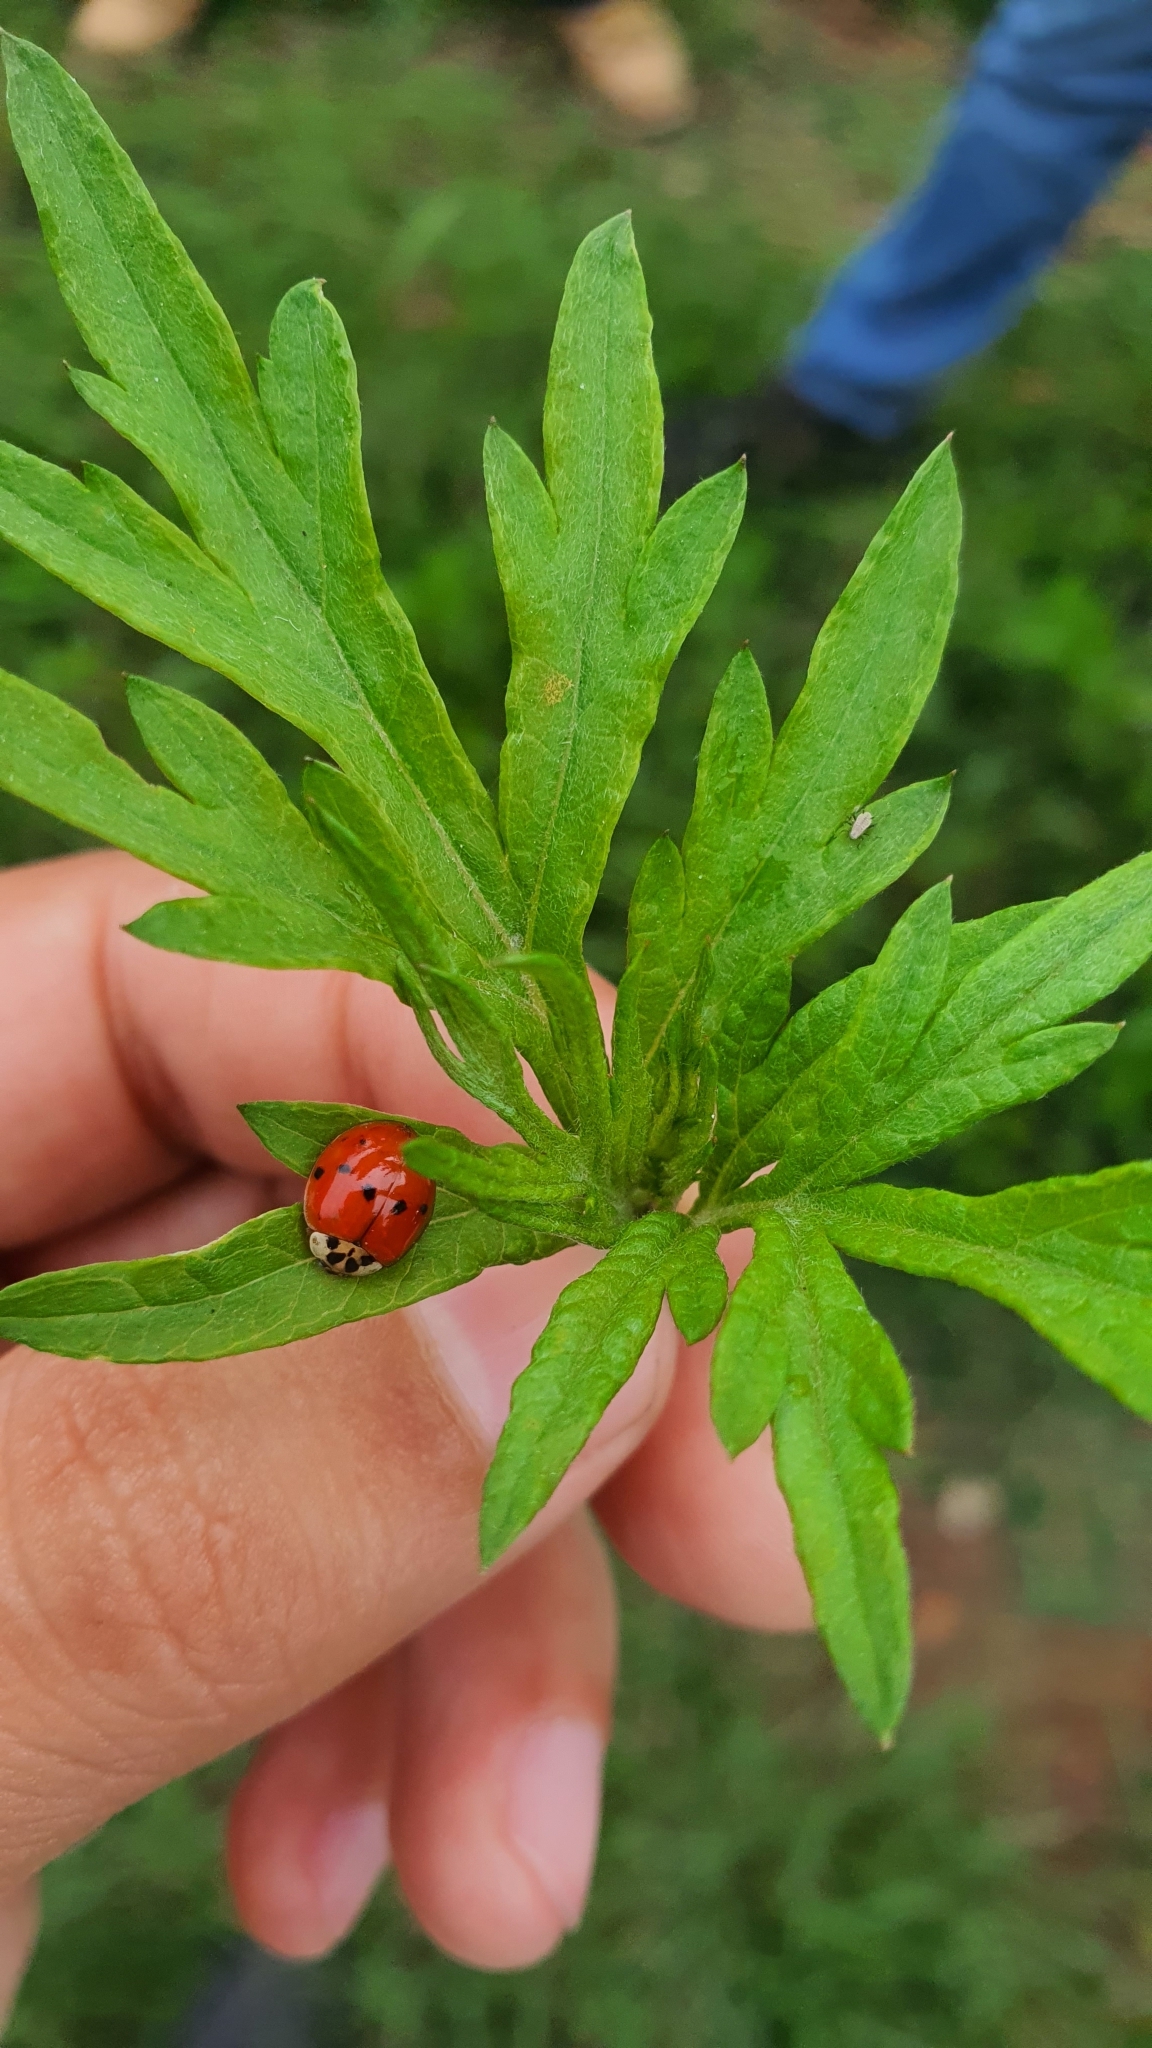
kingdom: Animalia
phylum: Arthropoda
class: Insecta
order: Coleoptera
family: Coccinellidae
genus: Harmonia
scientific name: Harmonia axyridis
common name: Harlequin ladybird
